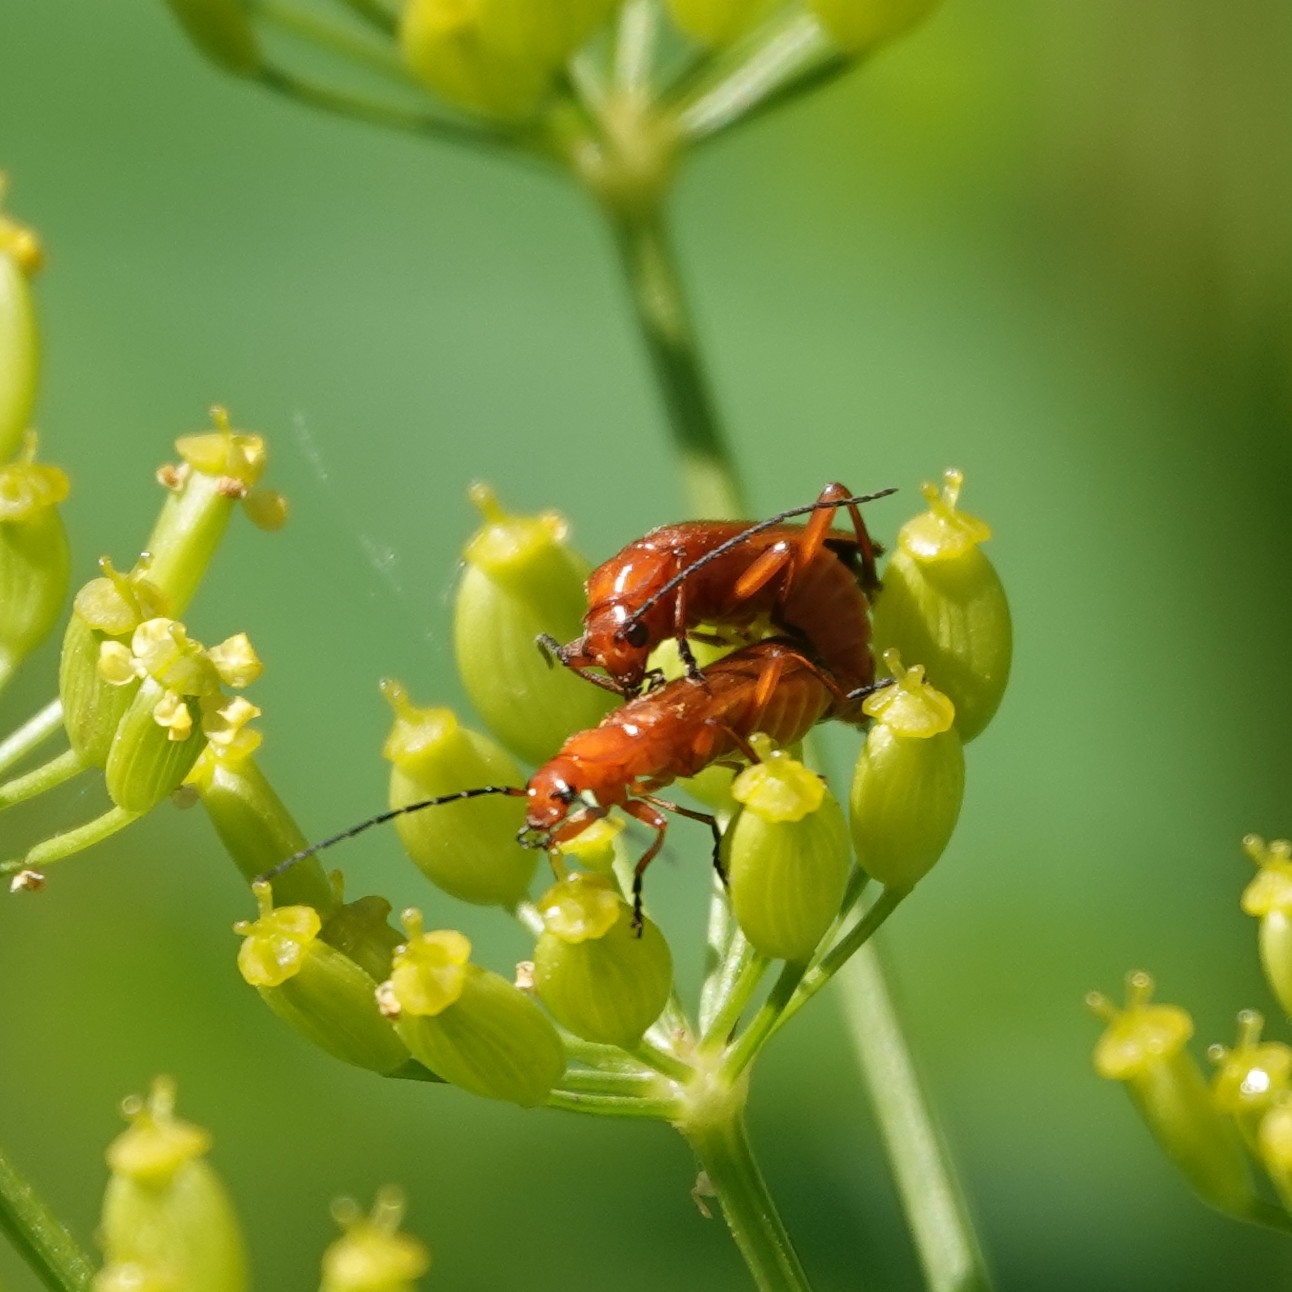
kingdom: Animalia
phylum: Arthropoda
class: Insecta
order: Coleoptera
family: Cantharidae
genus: Rhagonycha
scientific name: Rhagonycha fulva
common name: Common red soldier beetle
